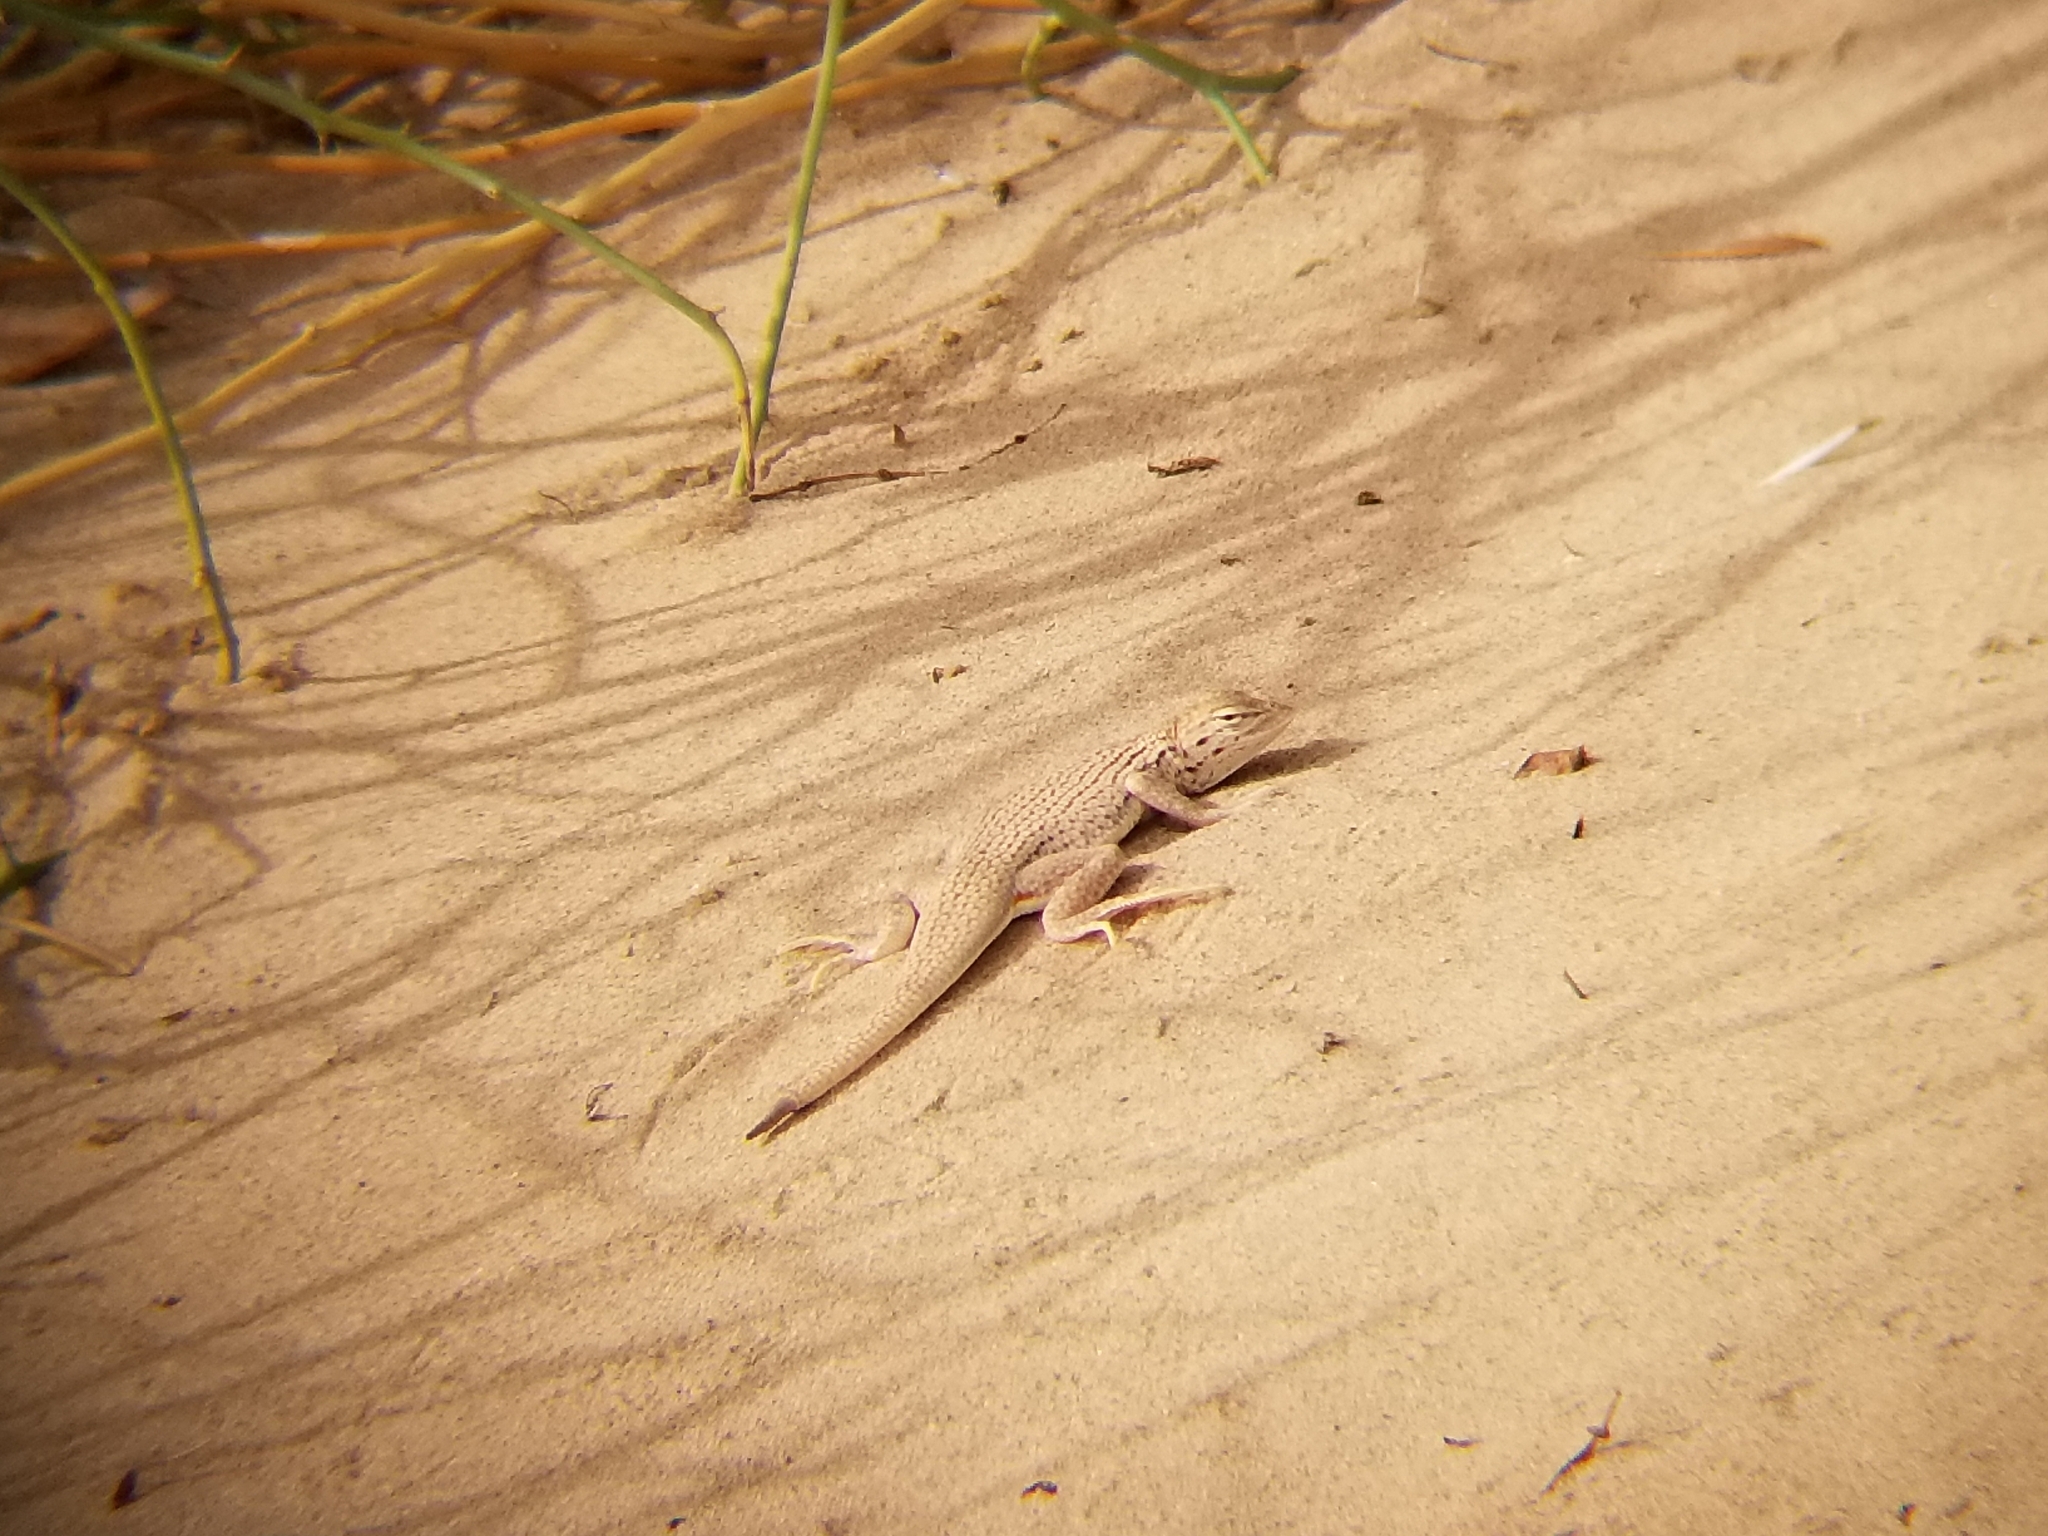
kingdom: Animalia
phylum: Chordata
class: Squamata
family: Phrynosomatidae
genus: Uma
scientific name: Uma notata
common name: Colorado desert fringe-toed lizard
